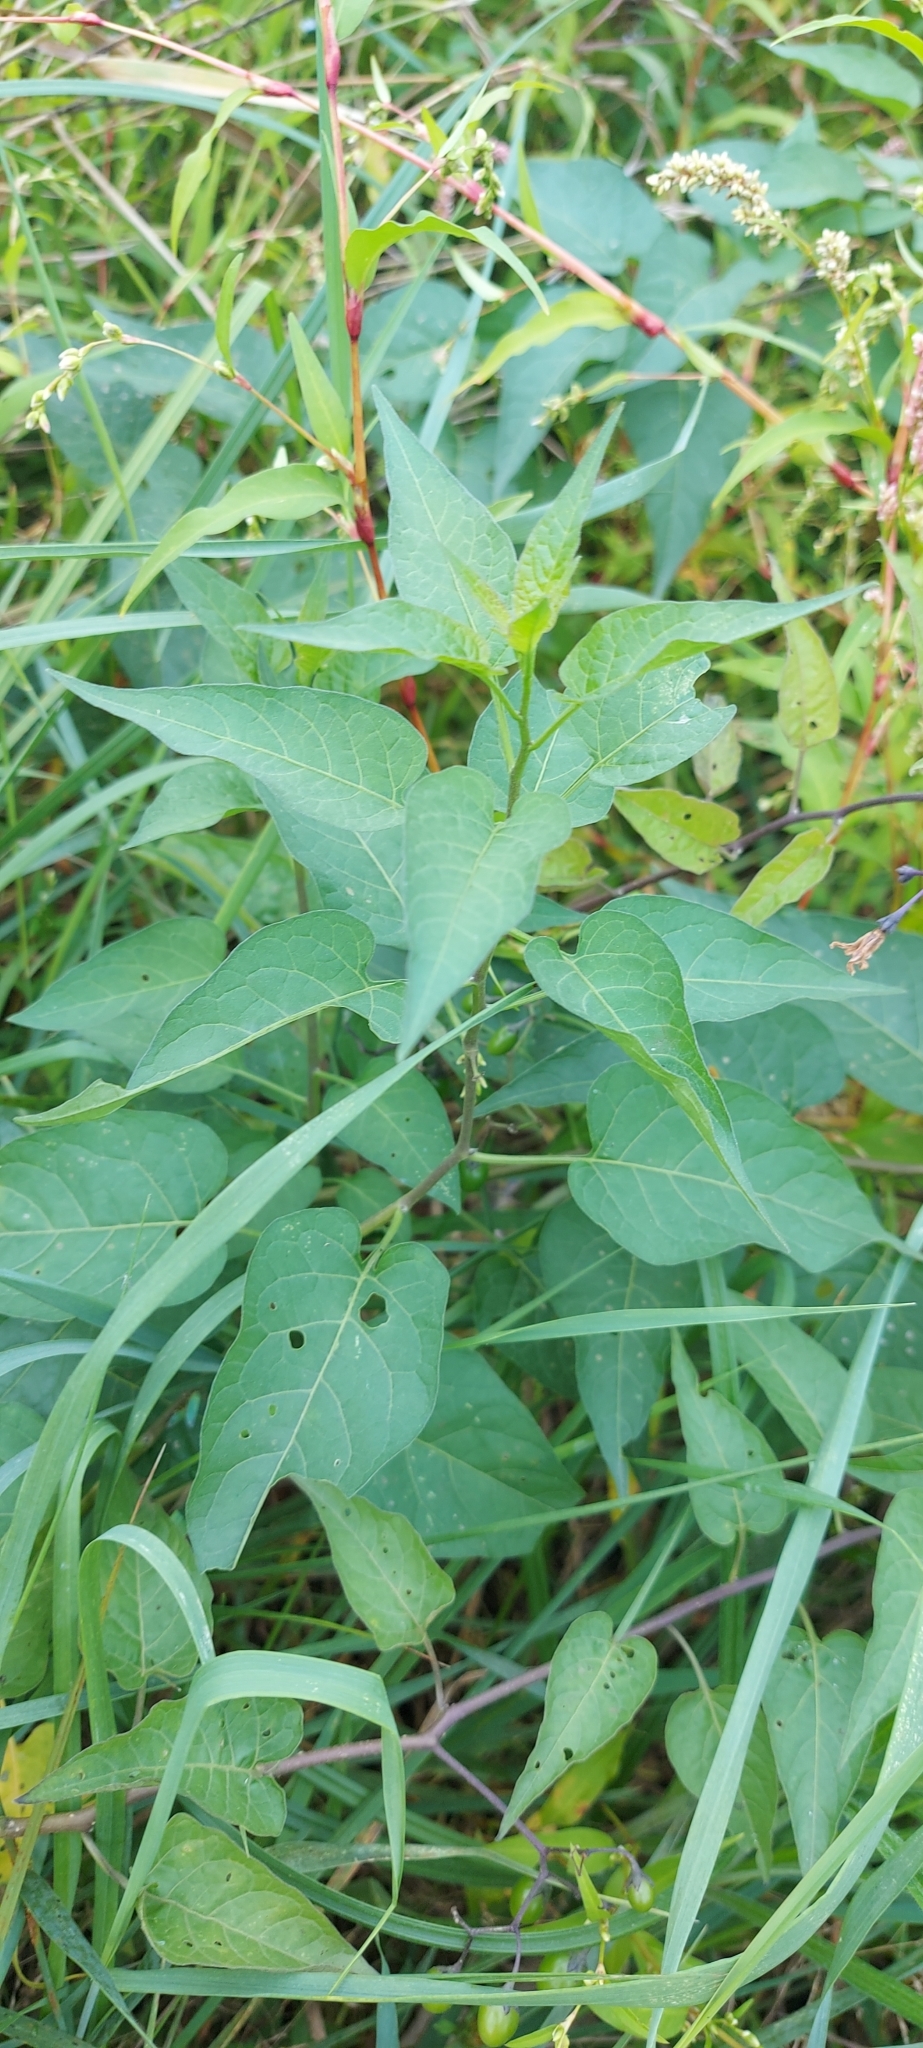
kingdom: Plantae
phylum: Tracheophyta
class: Magnoliopsida
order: Solanales
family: Solanaceae
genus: Solanum
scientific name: Solanum dulcamara
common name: Climbing nightshade
